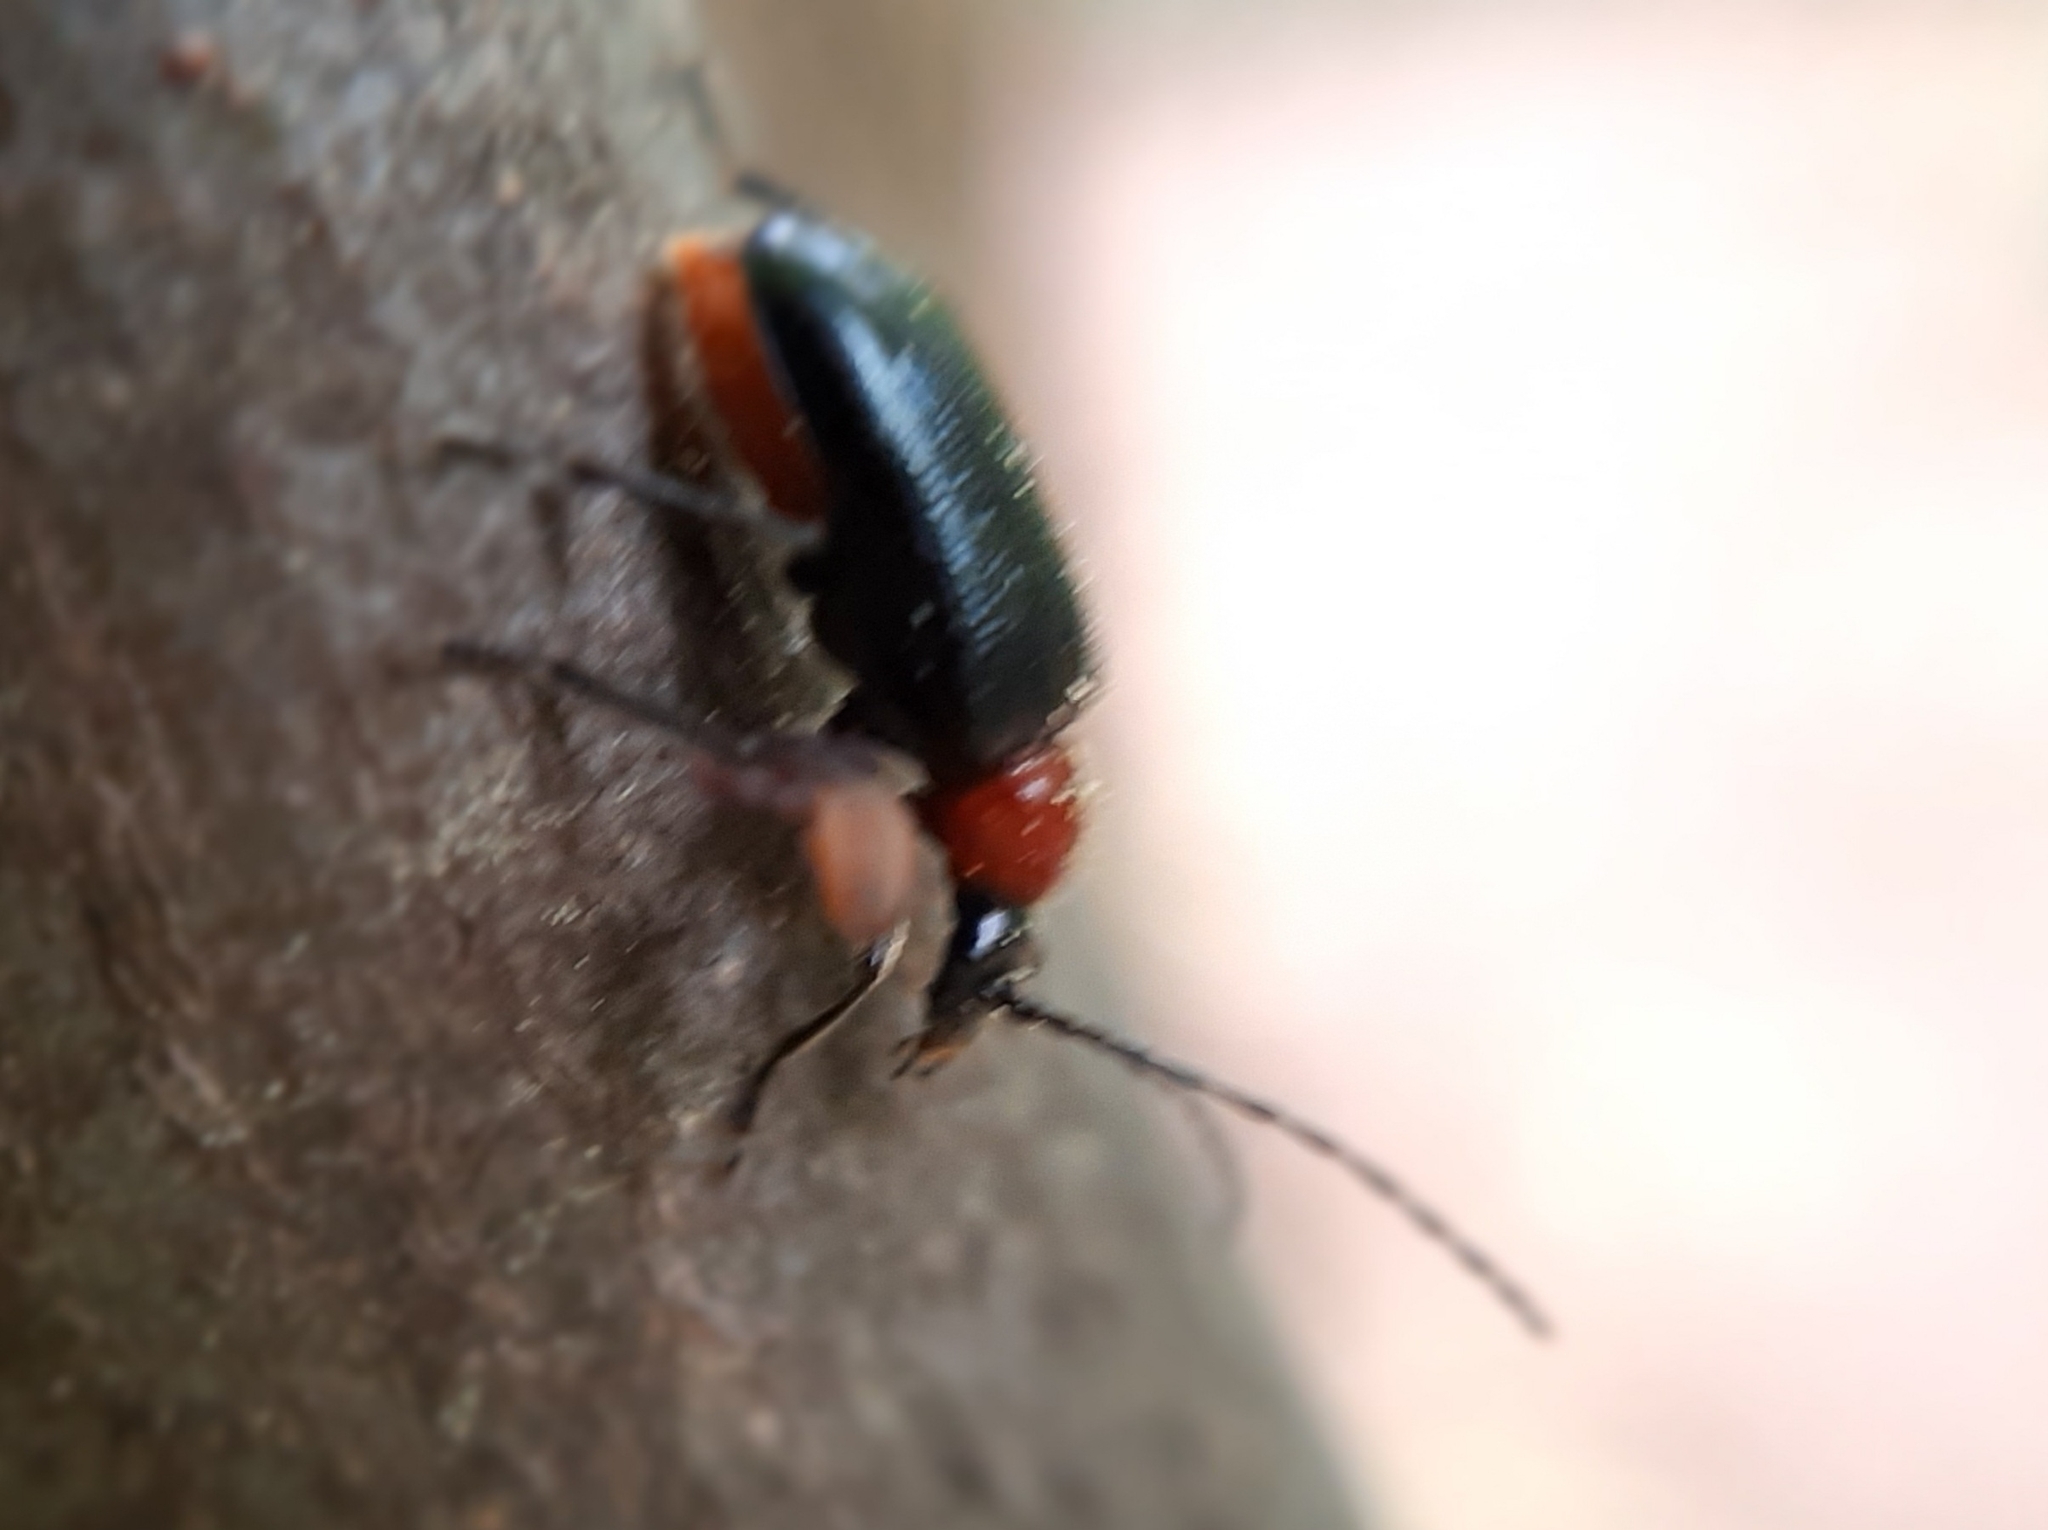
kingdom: Animalia
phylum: Arthropoda
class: Insecta
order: Coleoptera
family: Cerambycidae
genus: Dinoptera
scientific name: Dinoptera collaris
